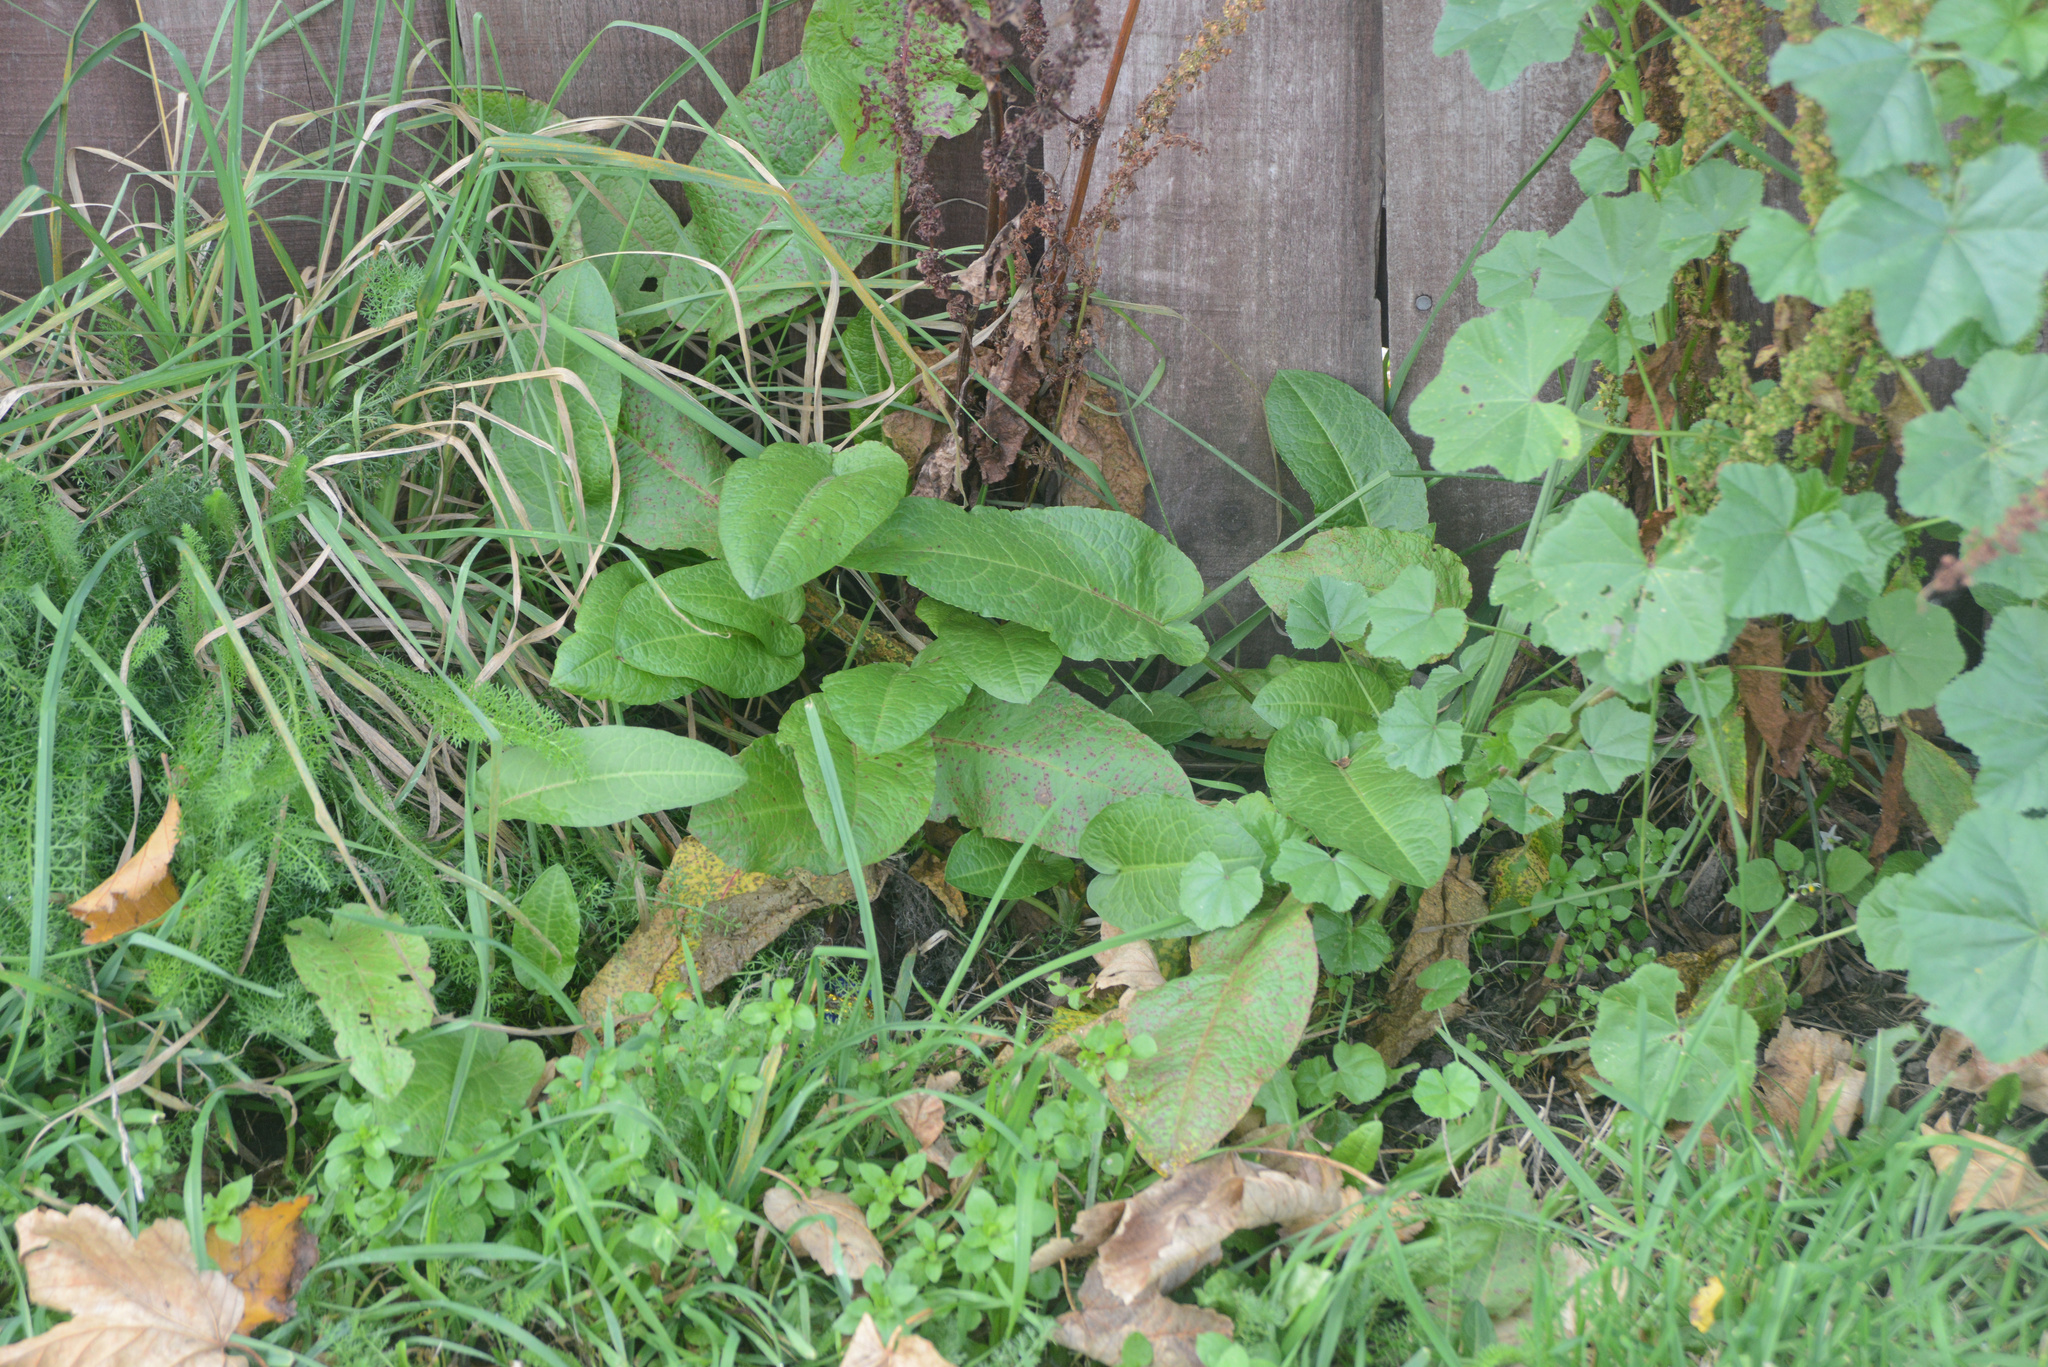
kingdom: Plantae
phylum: Tracheophyta
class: Magnoliopsida
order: Caryophyllales
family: Polygonaceae
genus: Rumex
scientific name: Rumex obtusifolius
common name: Bitter dock
